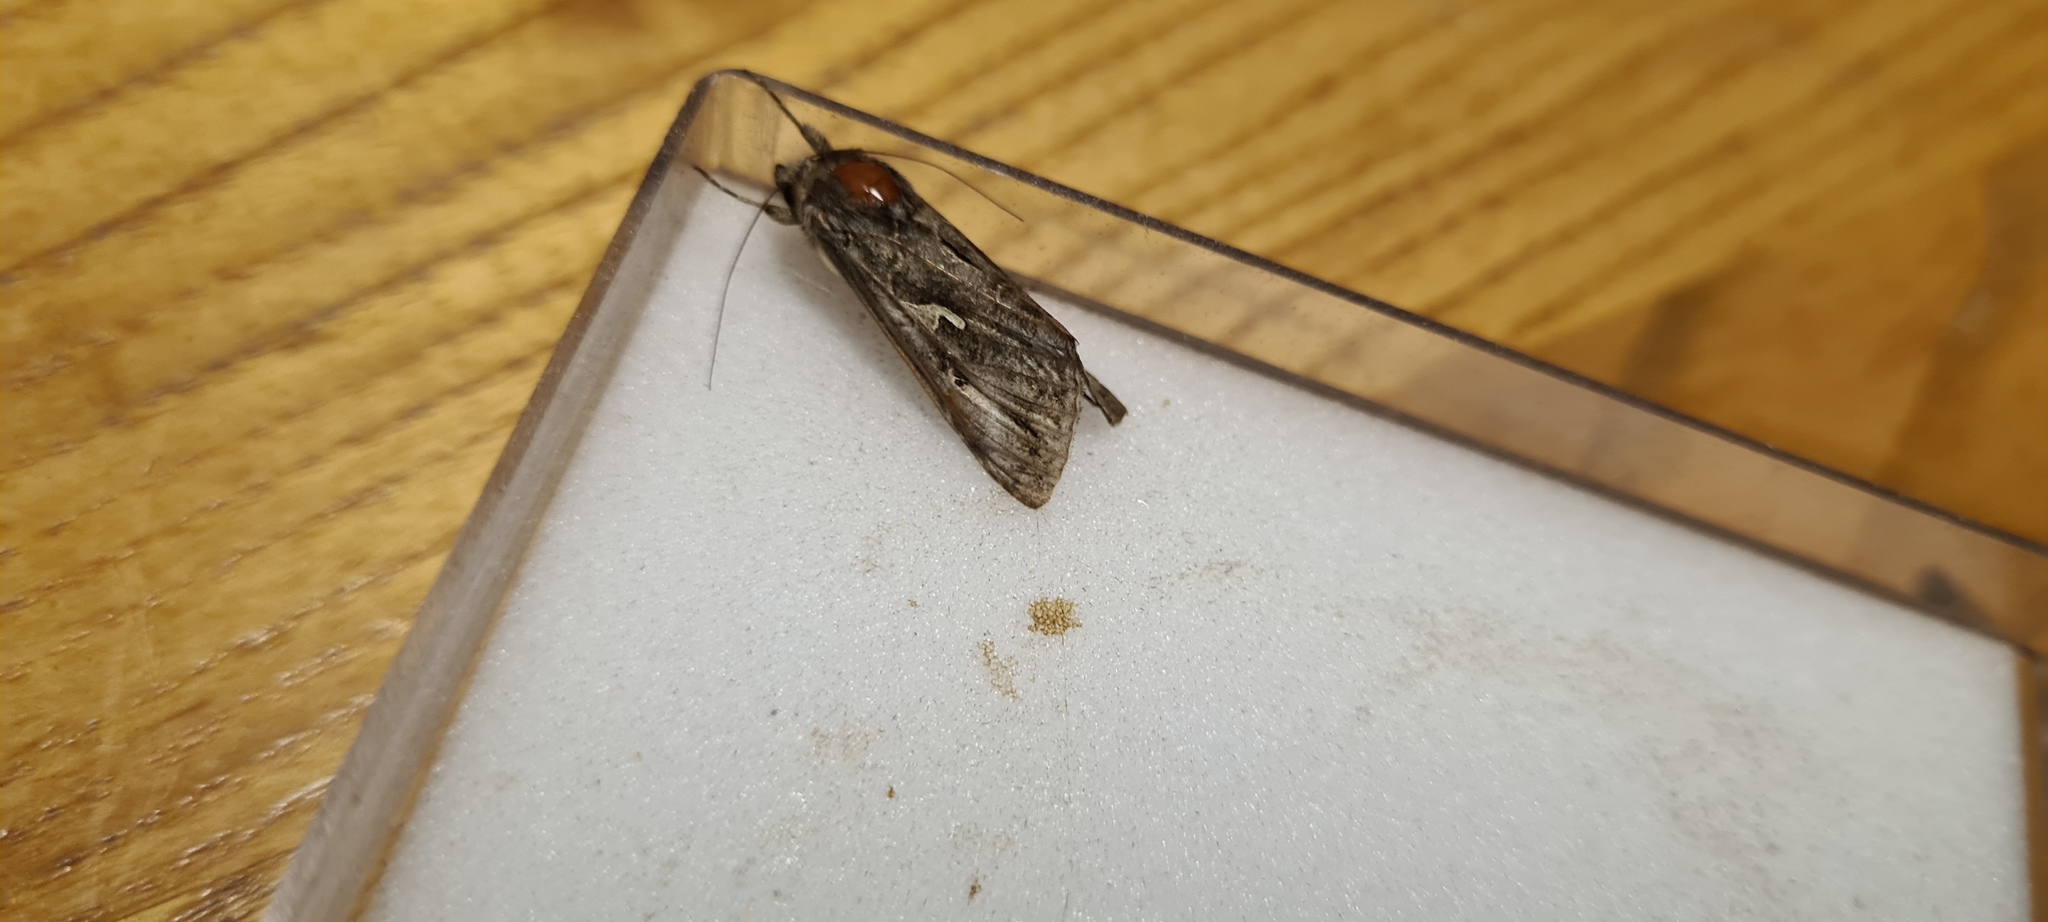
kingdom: Animalia
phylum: Arthropoda
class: Insecta
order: Lepidoptera
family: Noctuidae
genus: Autographa
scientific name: Autographa gamma
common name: Silver y
